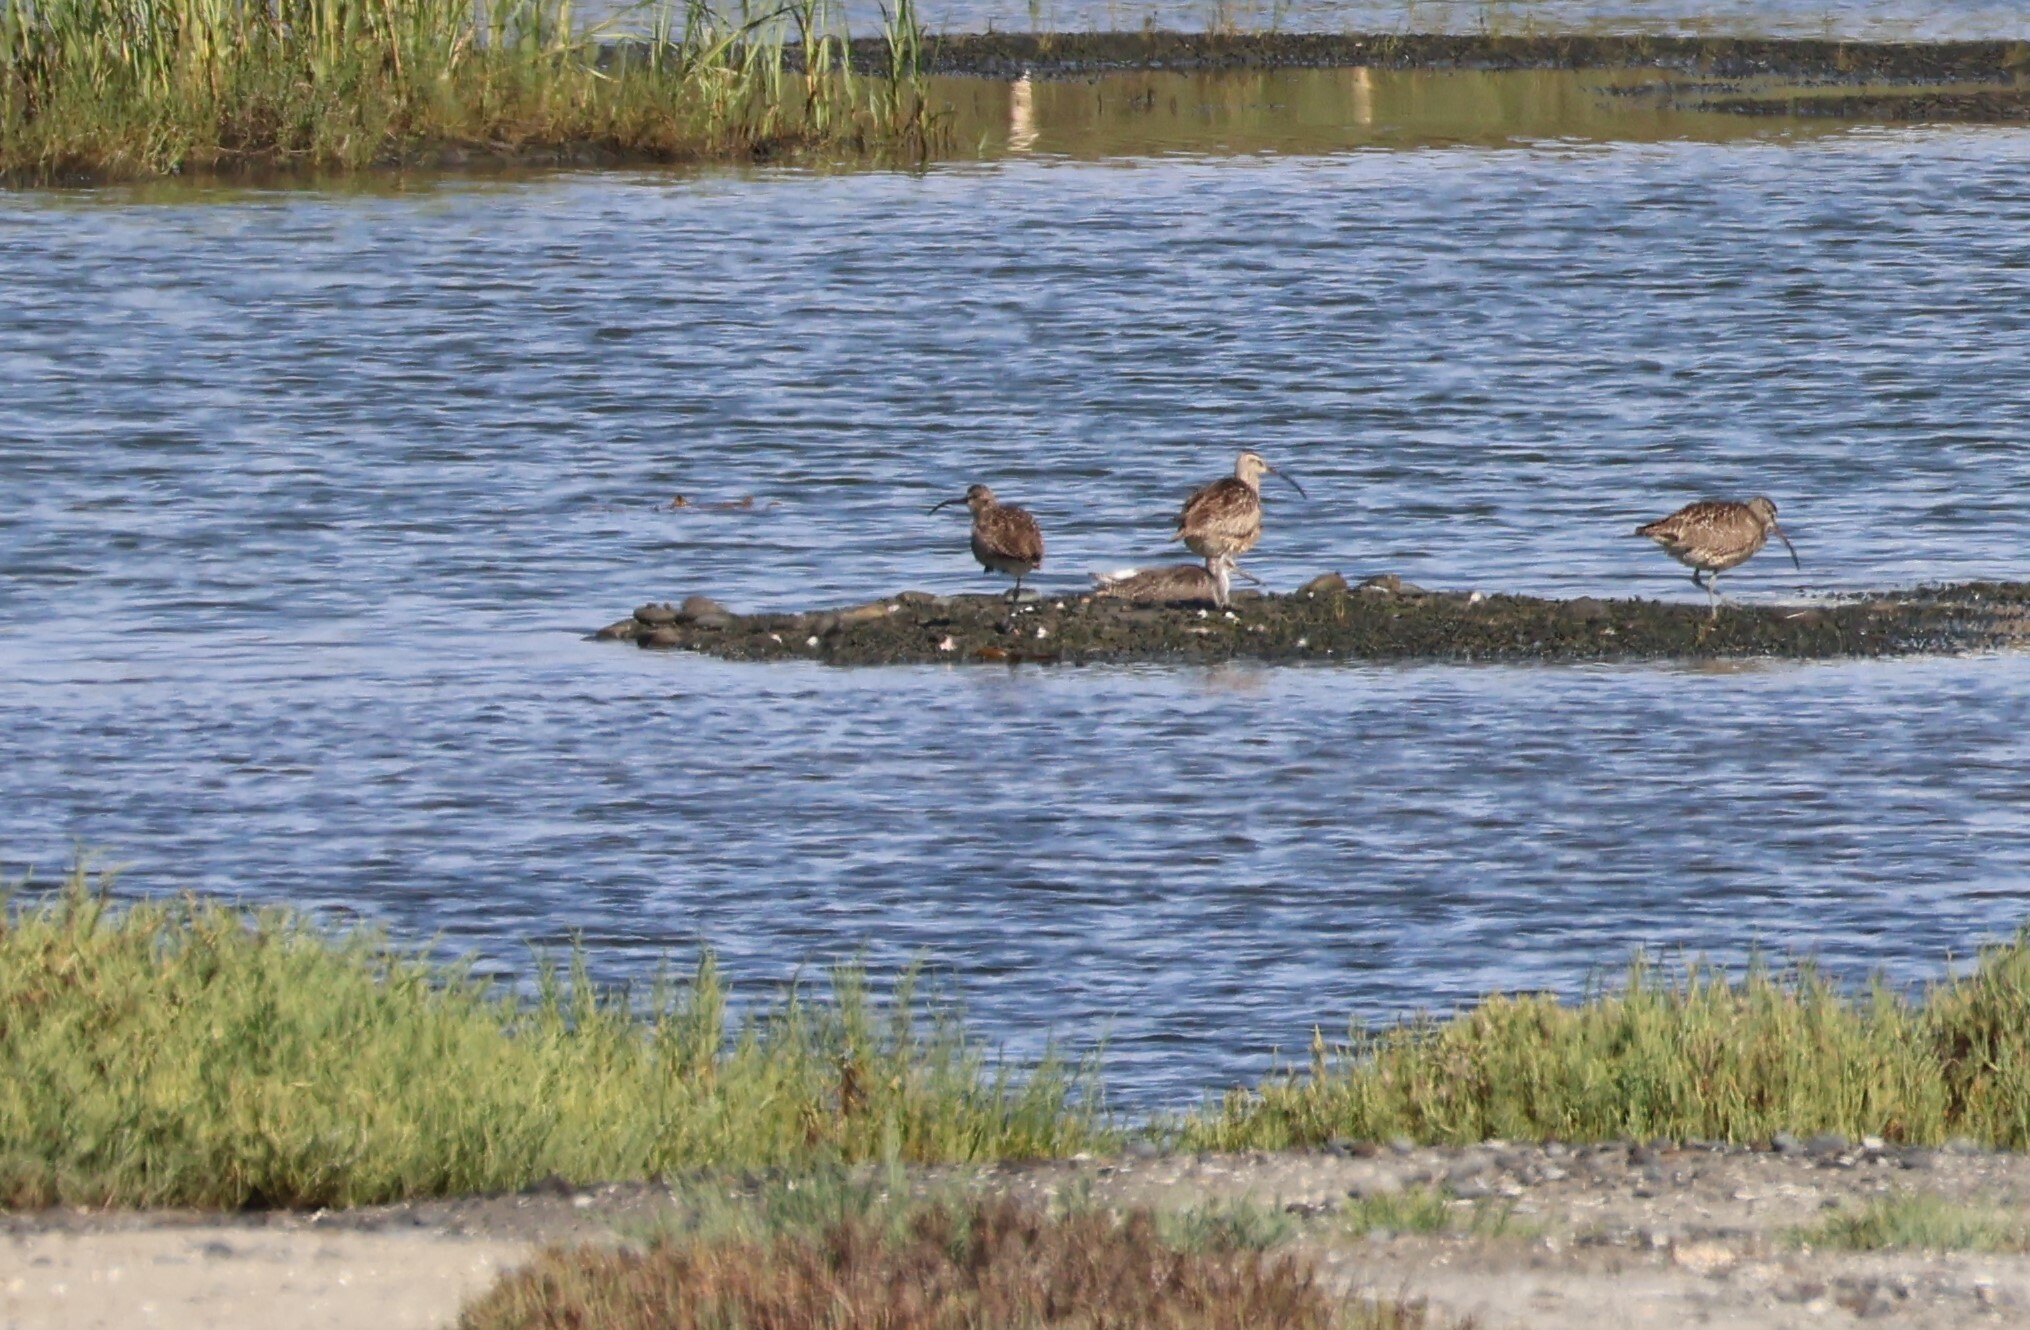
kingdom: Animalia
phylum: Chordata
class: Aves
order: Charadriiformes
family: Scolopacidae
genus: Numenius
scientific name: Numenius phaeopus
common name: Whimbrel
